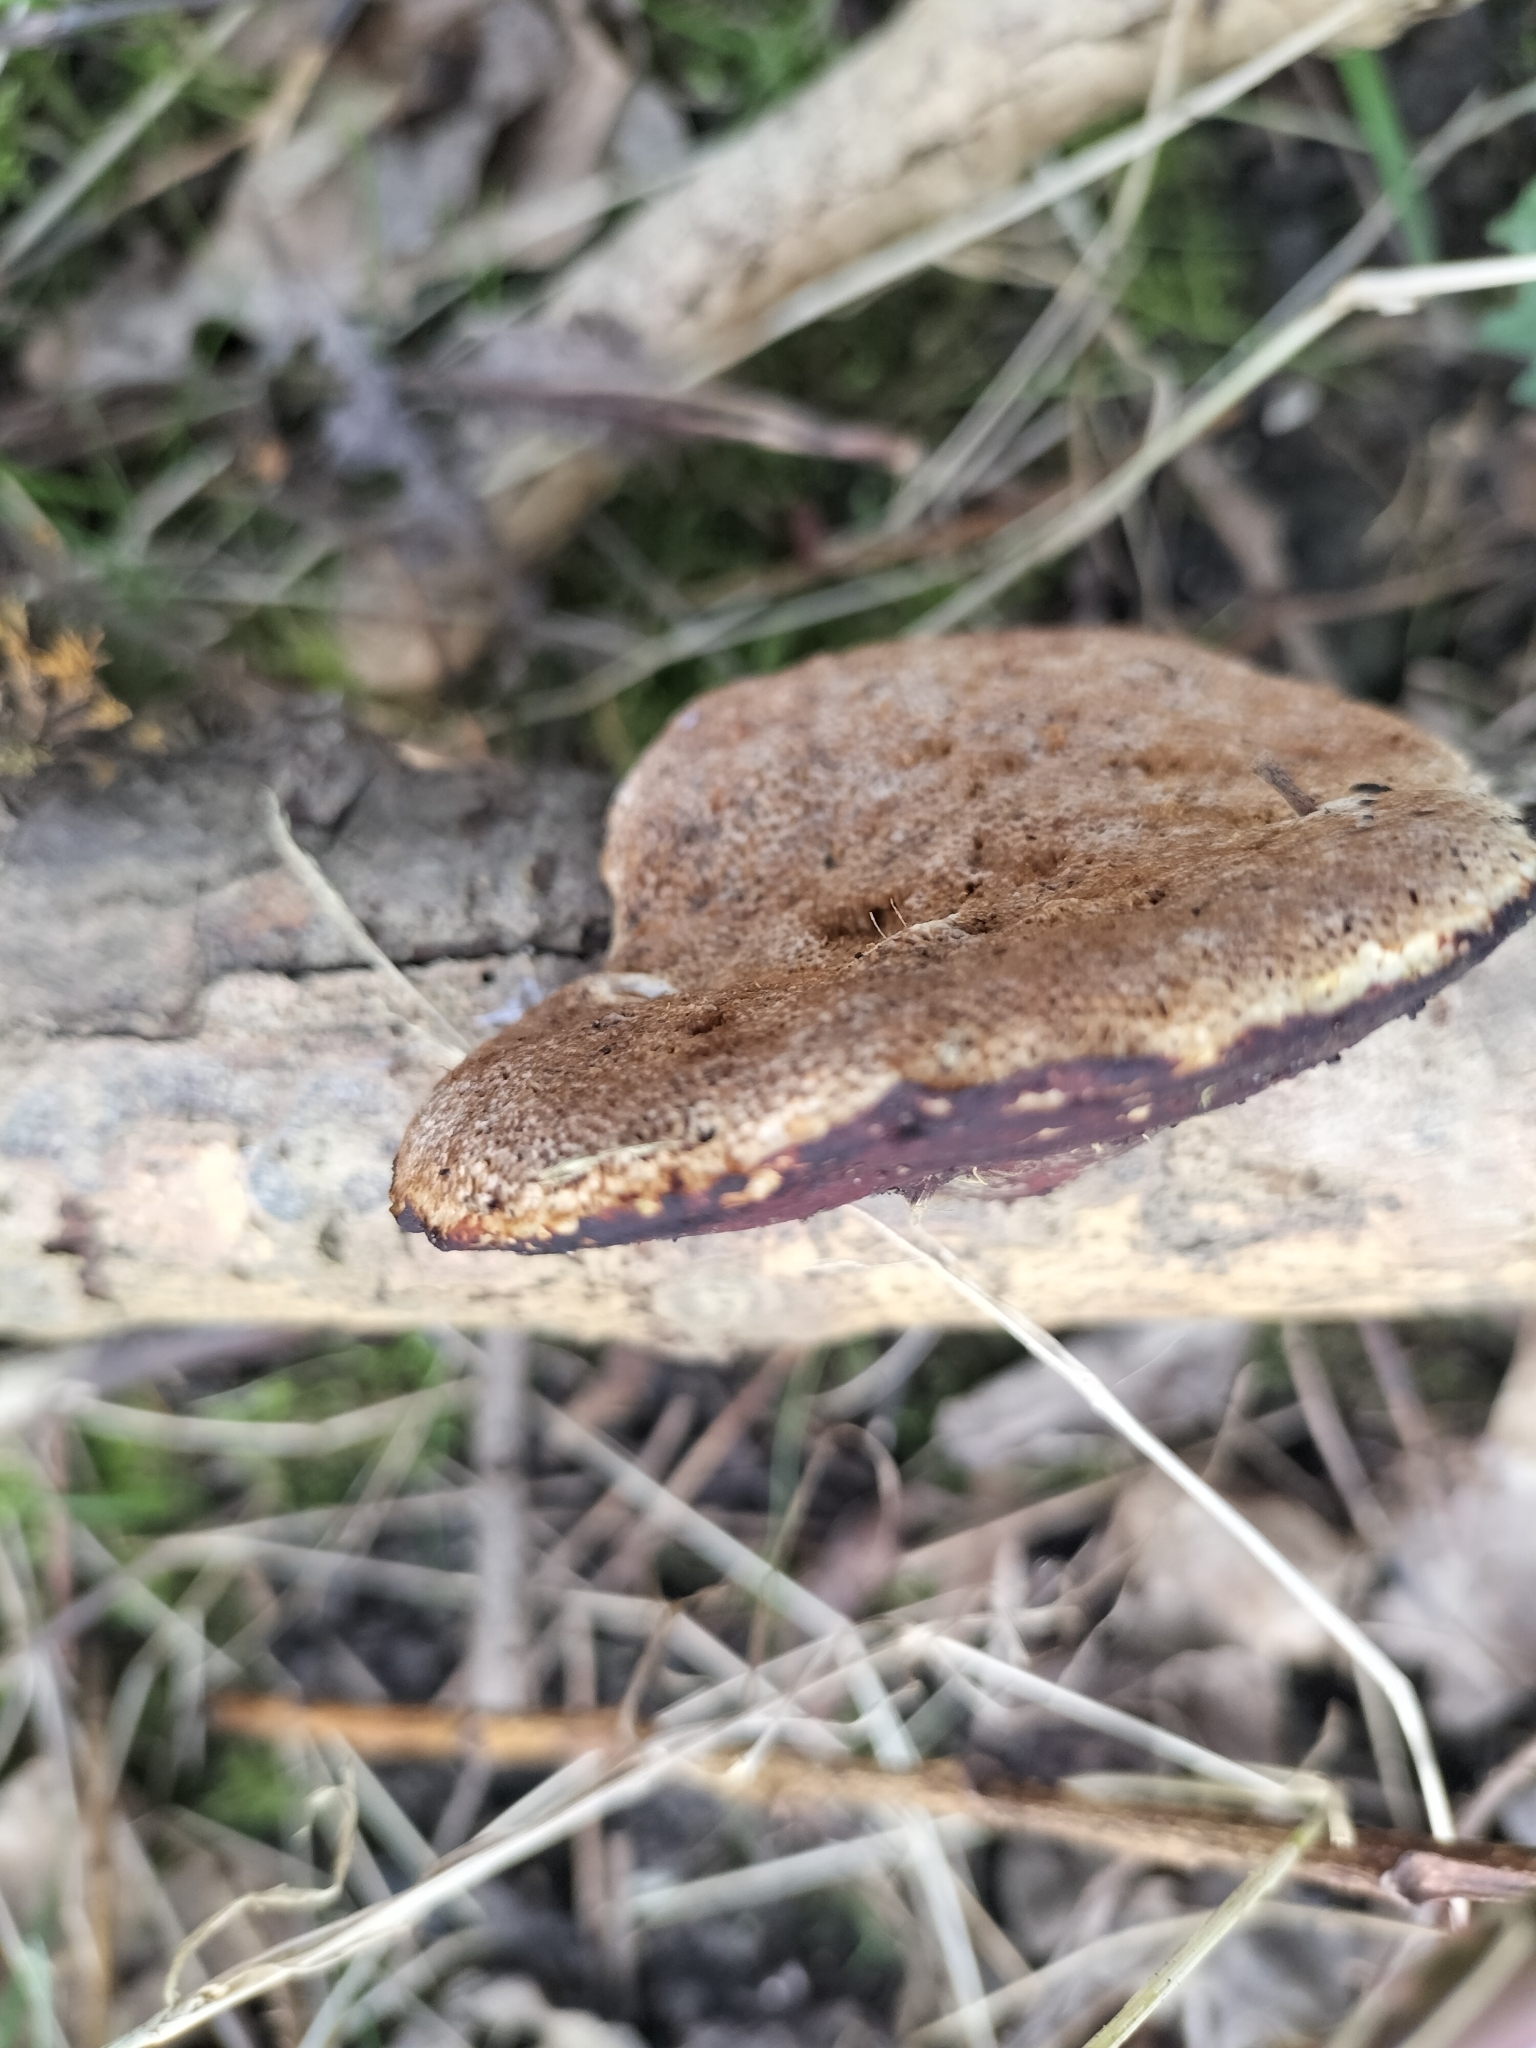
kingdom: Fungi
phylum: Basidiomycota
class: Agaricomycetes
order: Polyporales
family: Polyporaceae
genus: Daedaleopsis
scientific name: Daedaleopsis confragosa
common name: Blushing bracket
